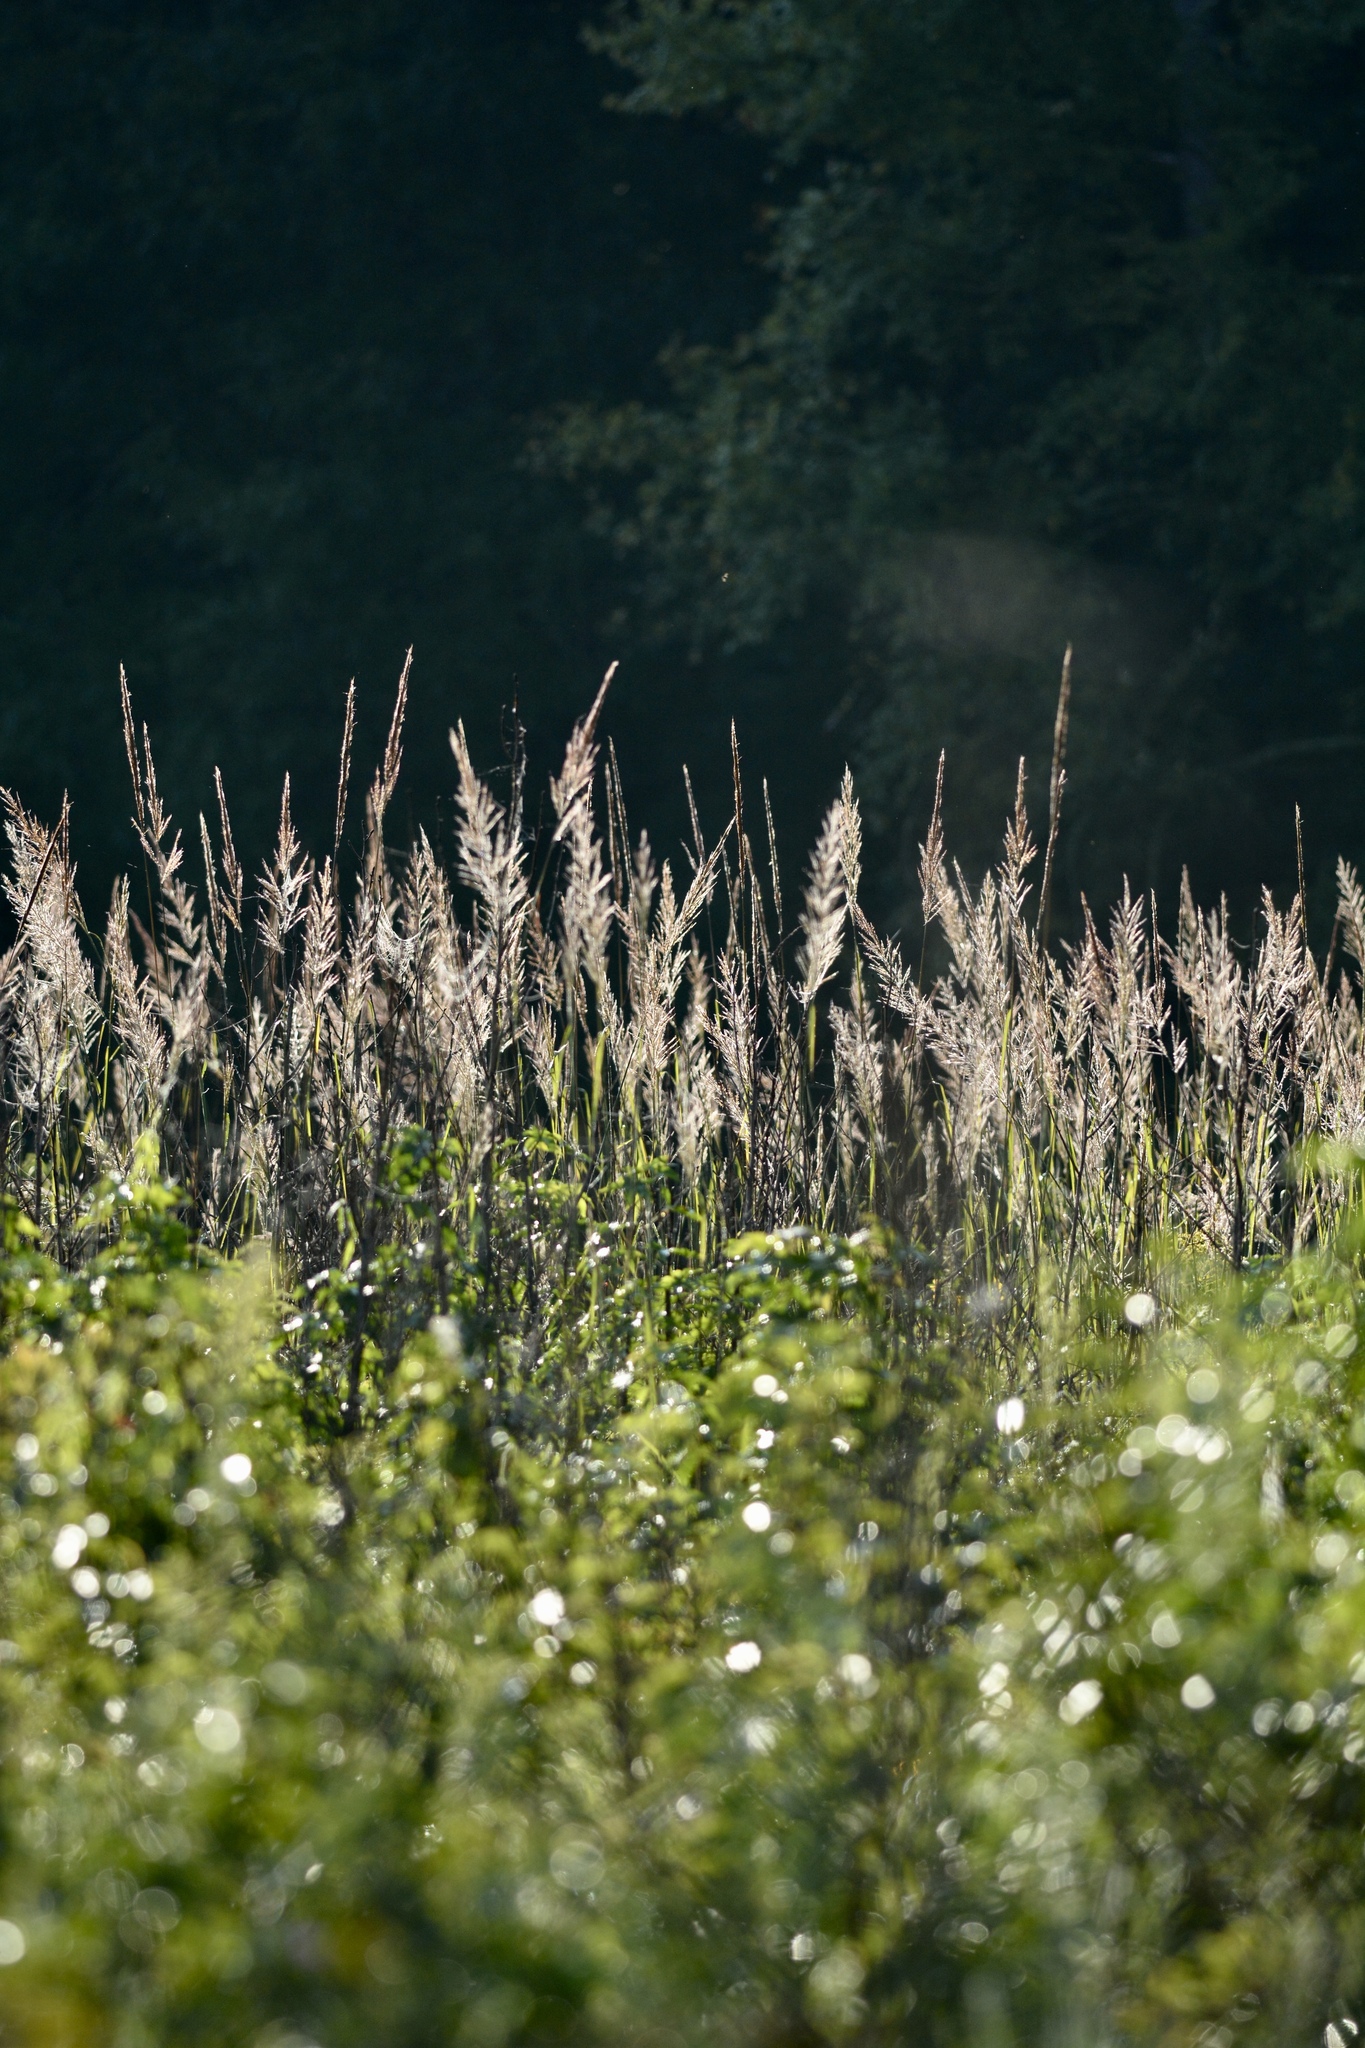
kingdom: Plantae
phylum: Tracheophyta
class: Liliopsida
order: Poales
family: Poaceae
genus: Phragmites
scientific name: Phragmites australis
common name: Common reed
